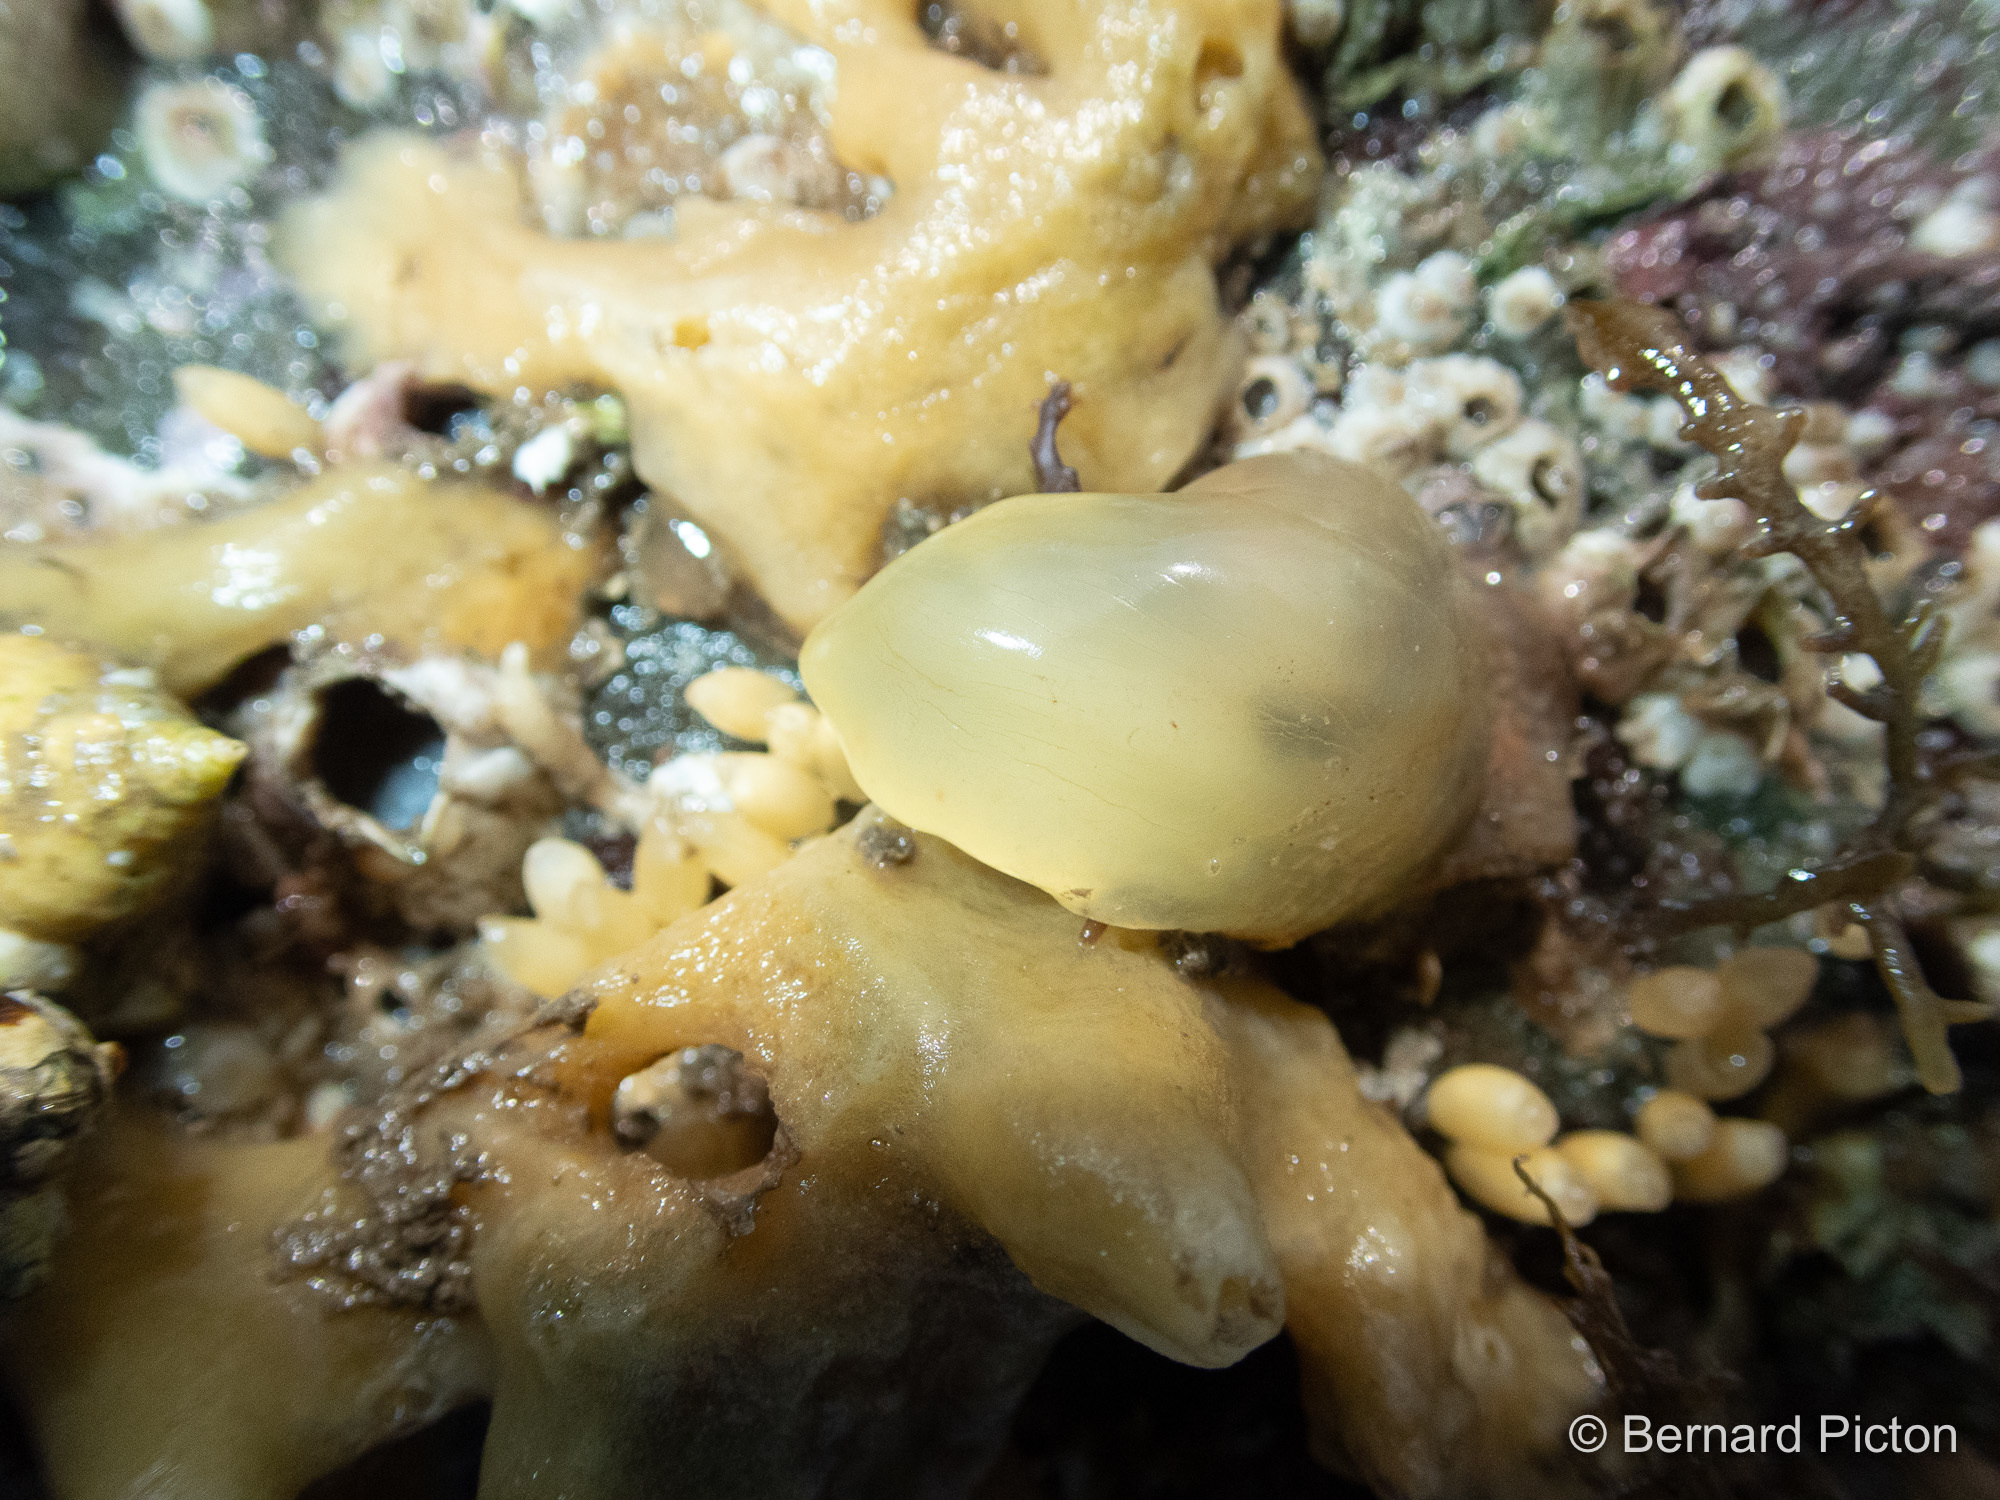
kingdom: Animalia
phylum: Chordata
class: Ascidiacea
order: Phlebobranchia
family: Cionidae
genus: Ciona
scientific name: Ciona intestinalis
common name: Vase tunicate
